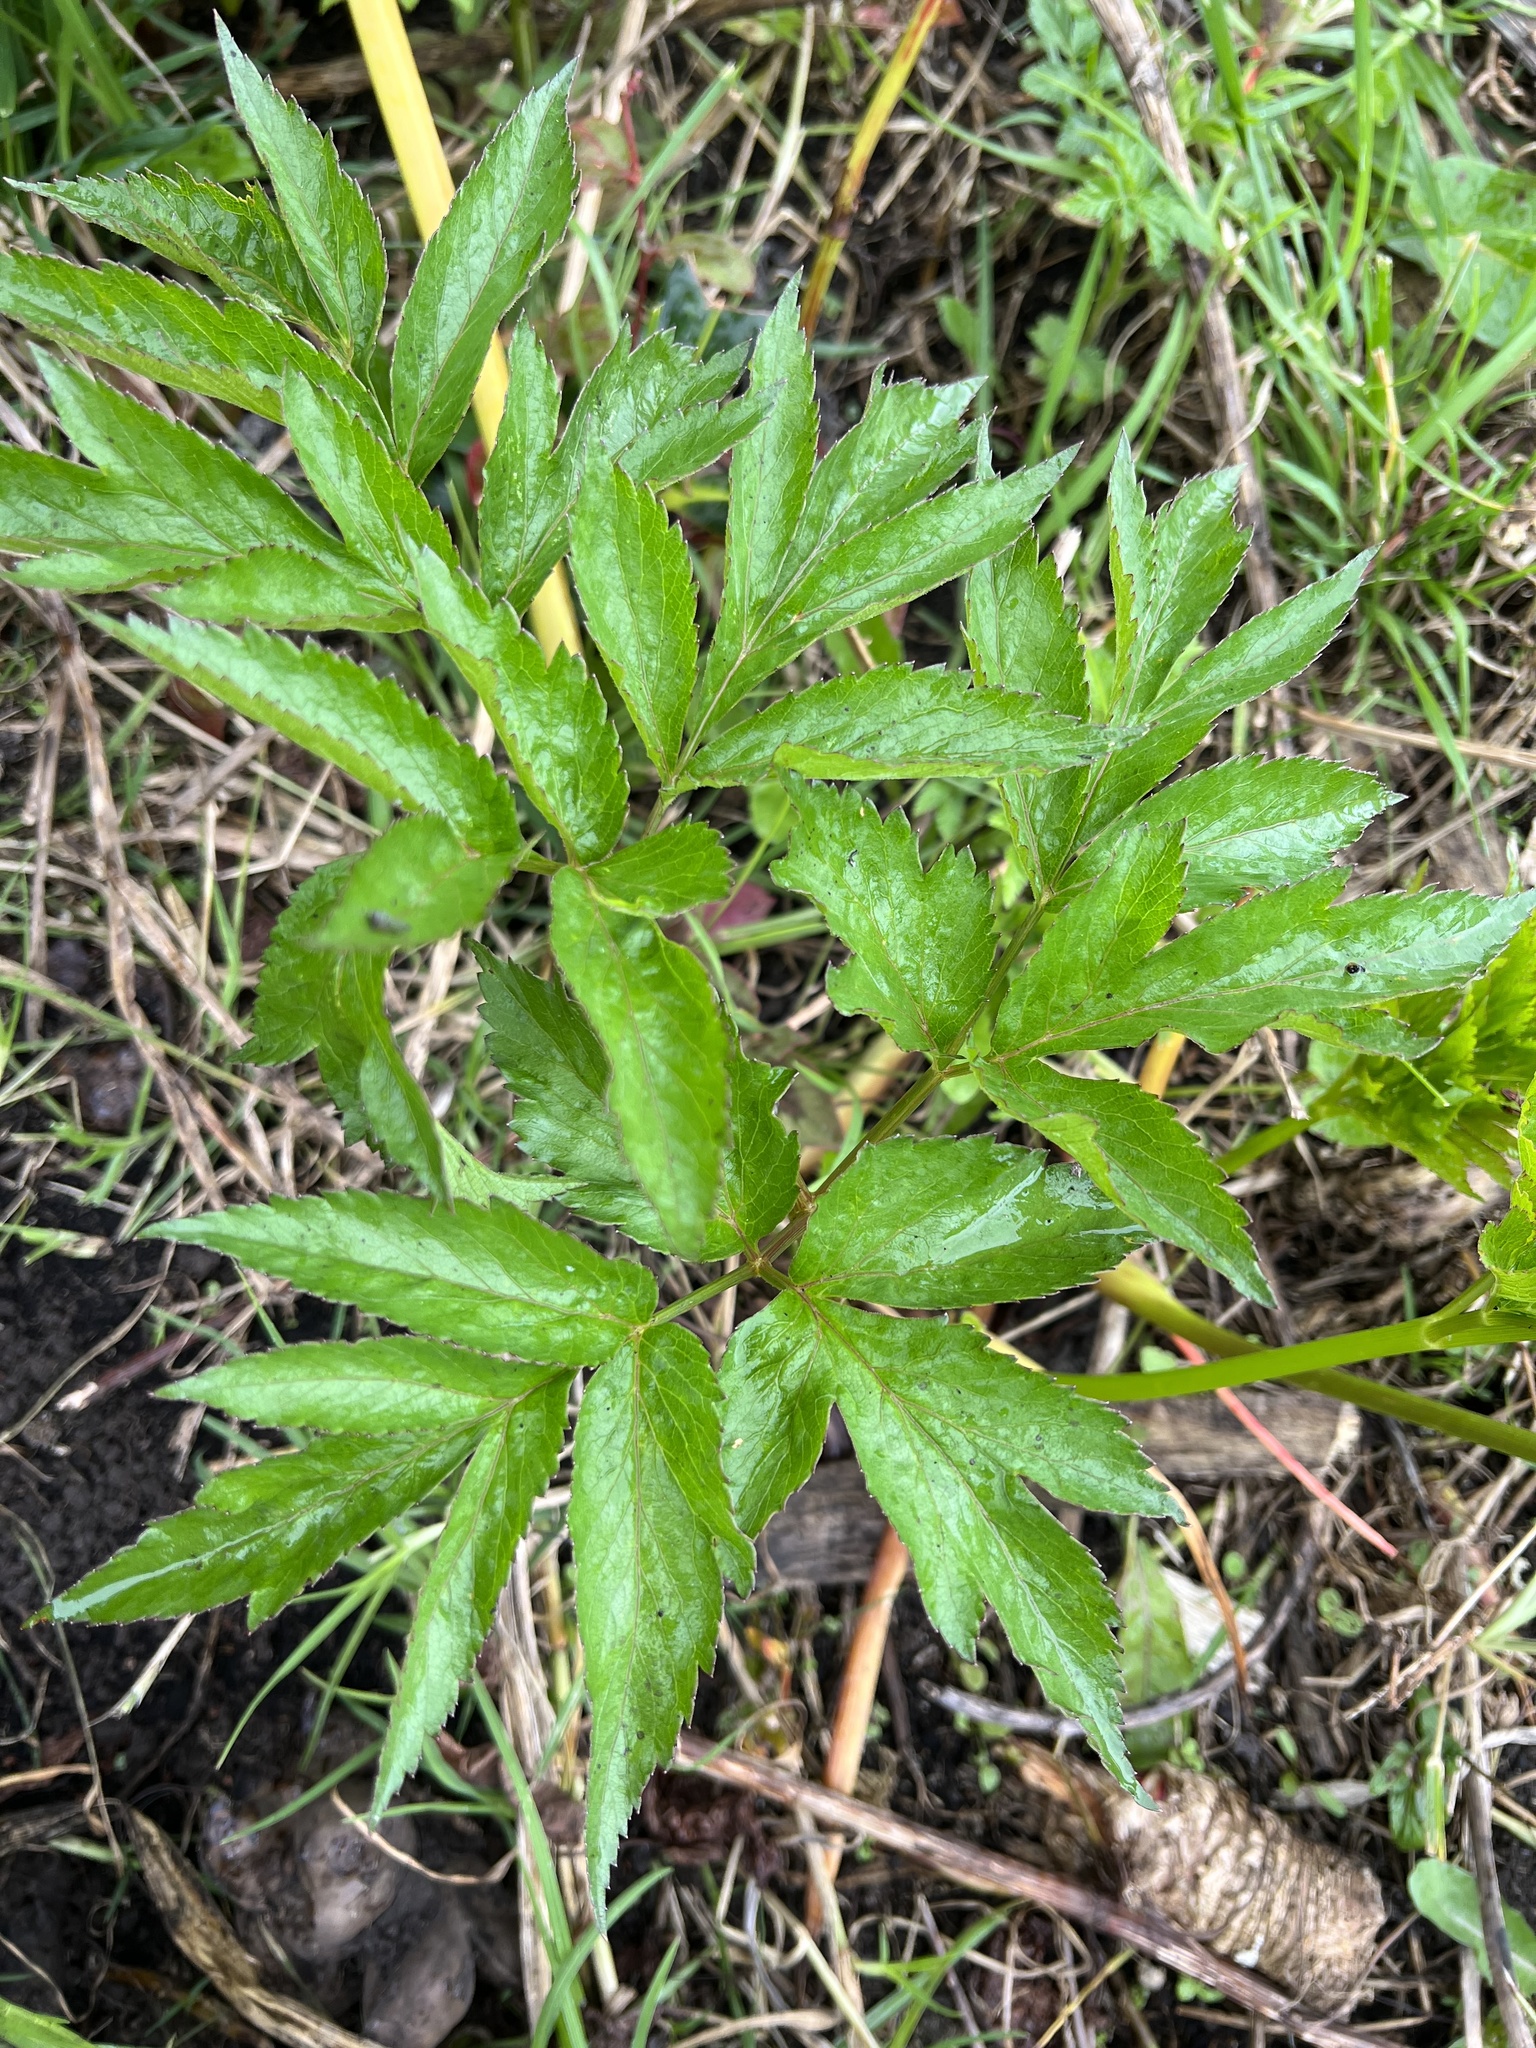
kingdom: Plantae
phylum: Tracheophyta
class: Magnoliopsida
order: Apiales
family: Apiaceae
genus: Arracacia
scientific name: Arracacia xanthorrhiza
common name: Peruvian-carrot
